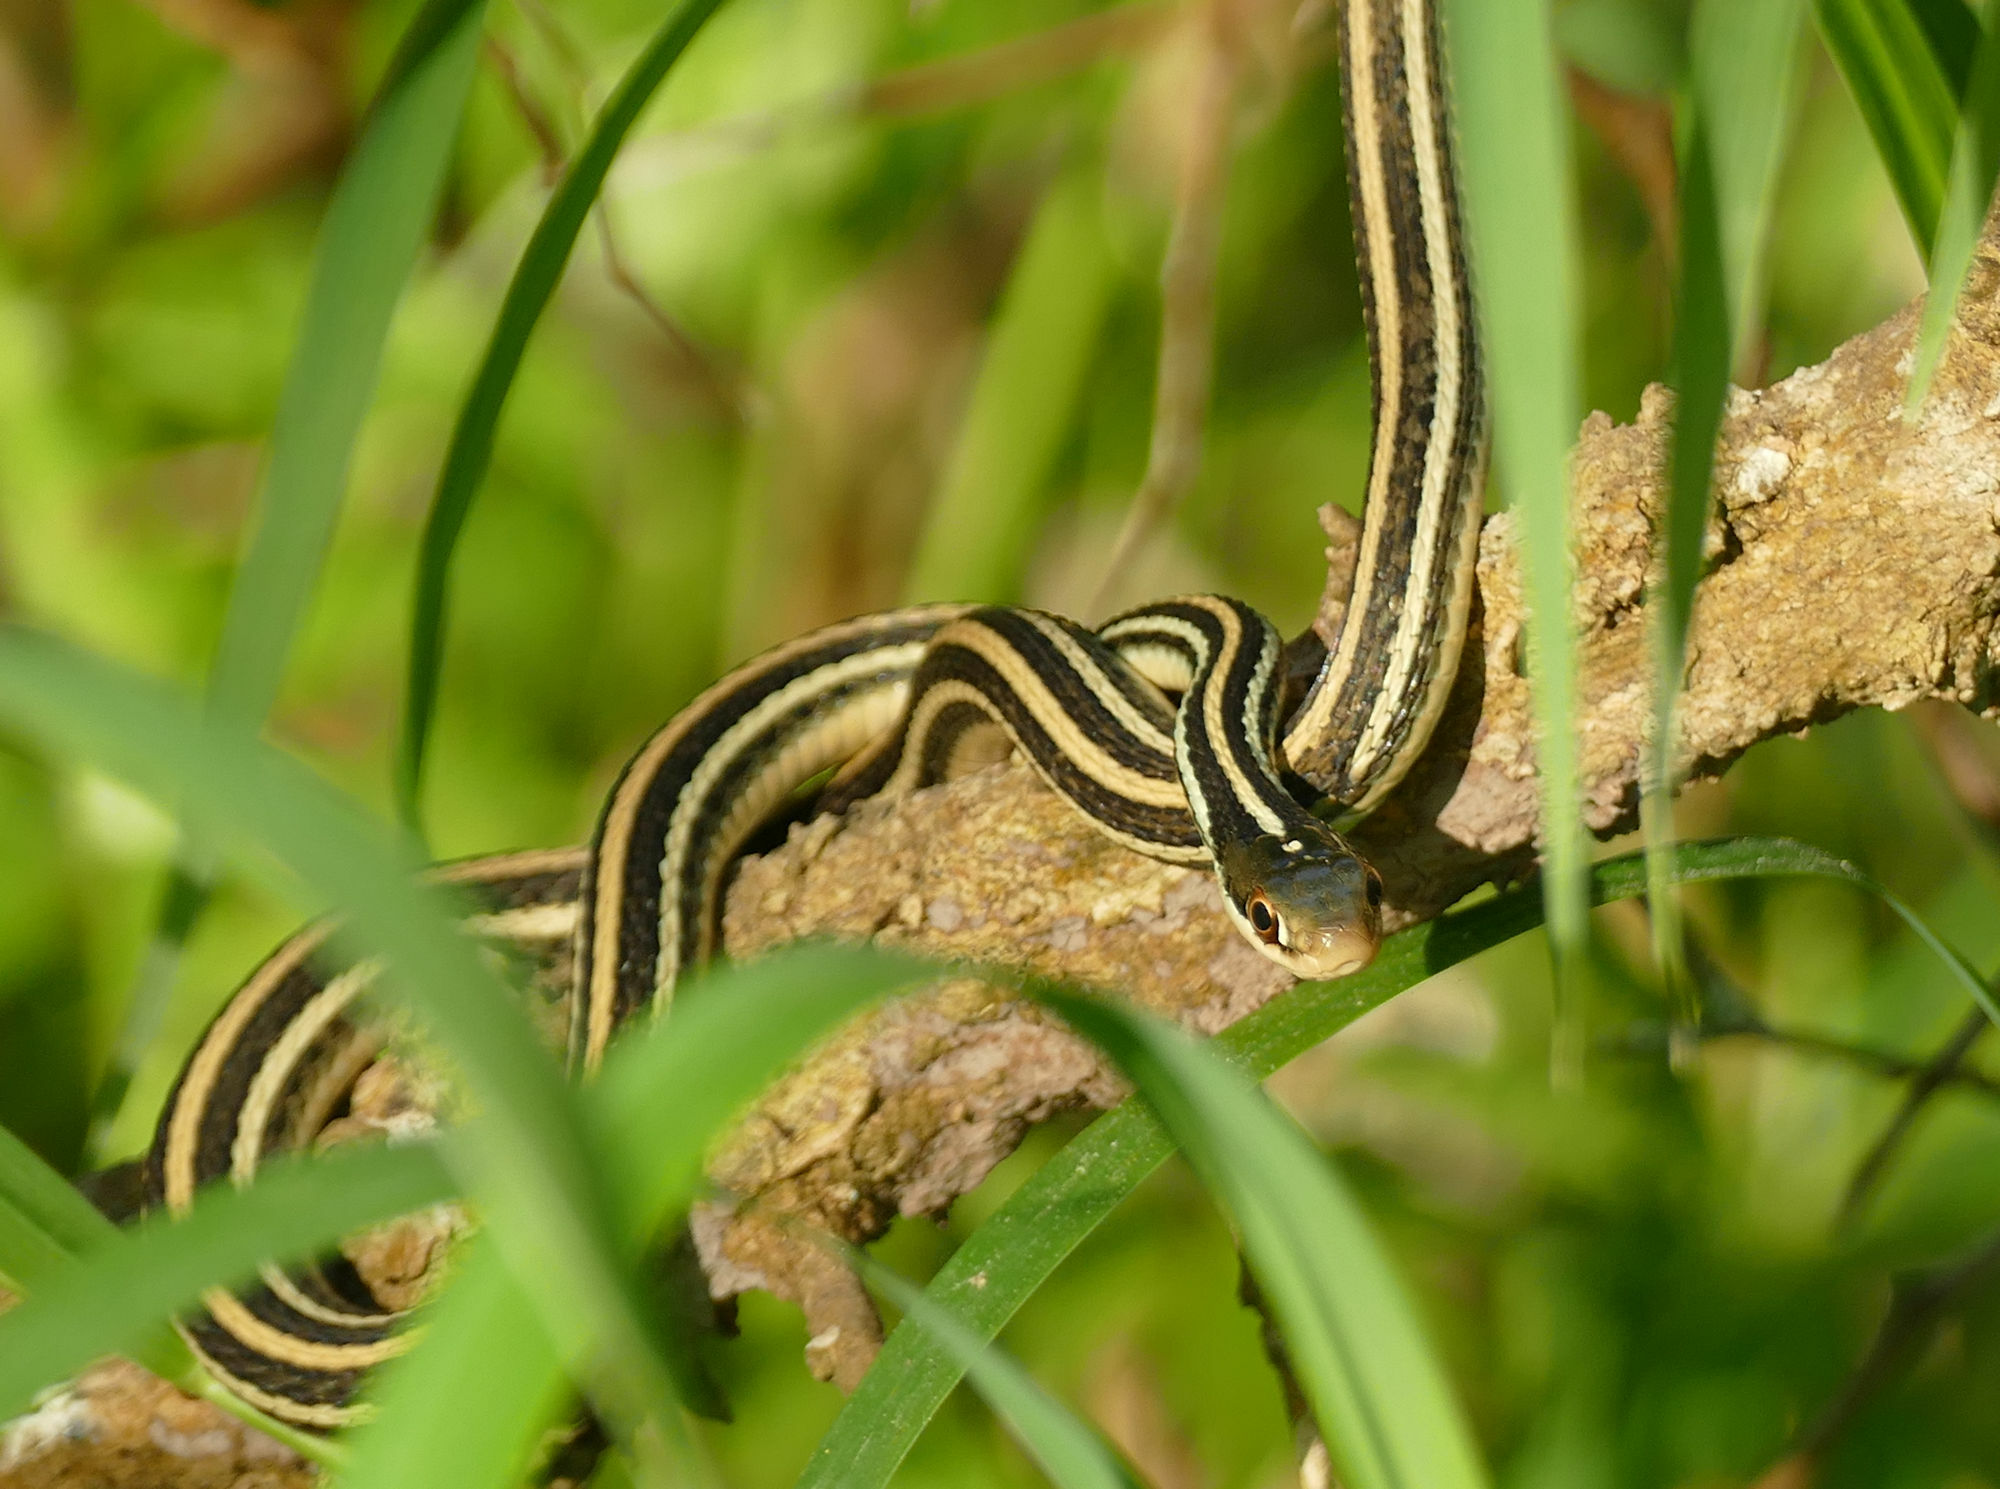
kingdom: Animalia
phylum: Chordata
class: Squamata
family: Colubridae
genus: Thamnophis
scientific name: Thamnophis proximus
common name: Western ribbon snake
